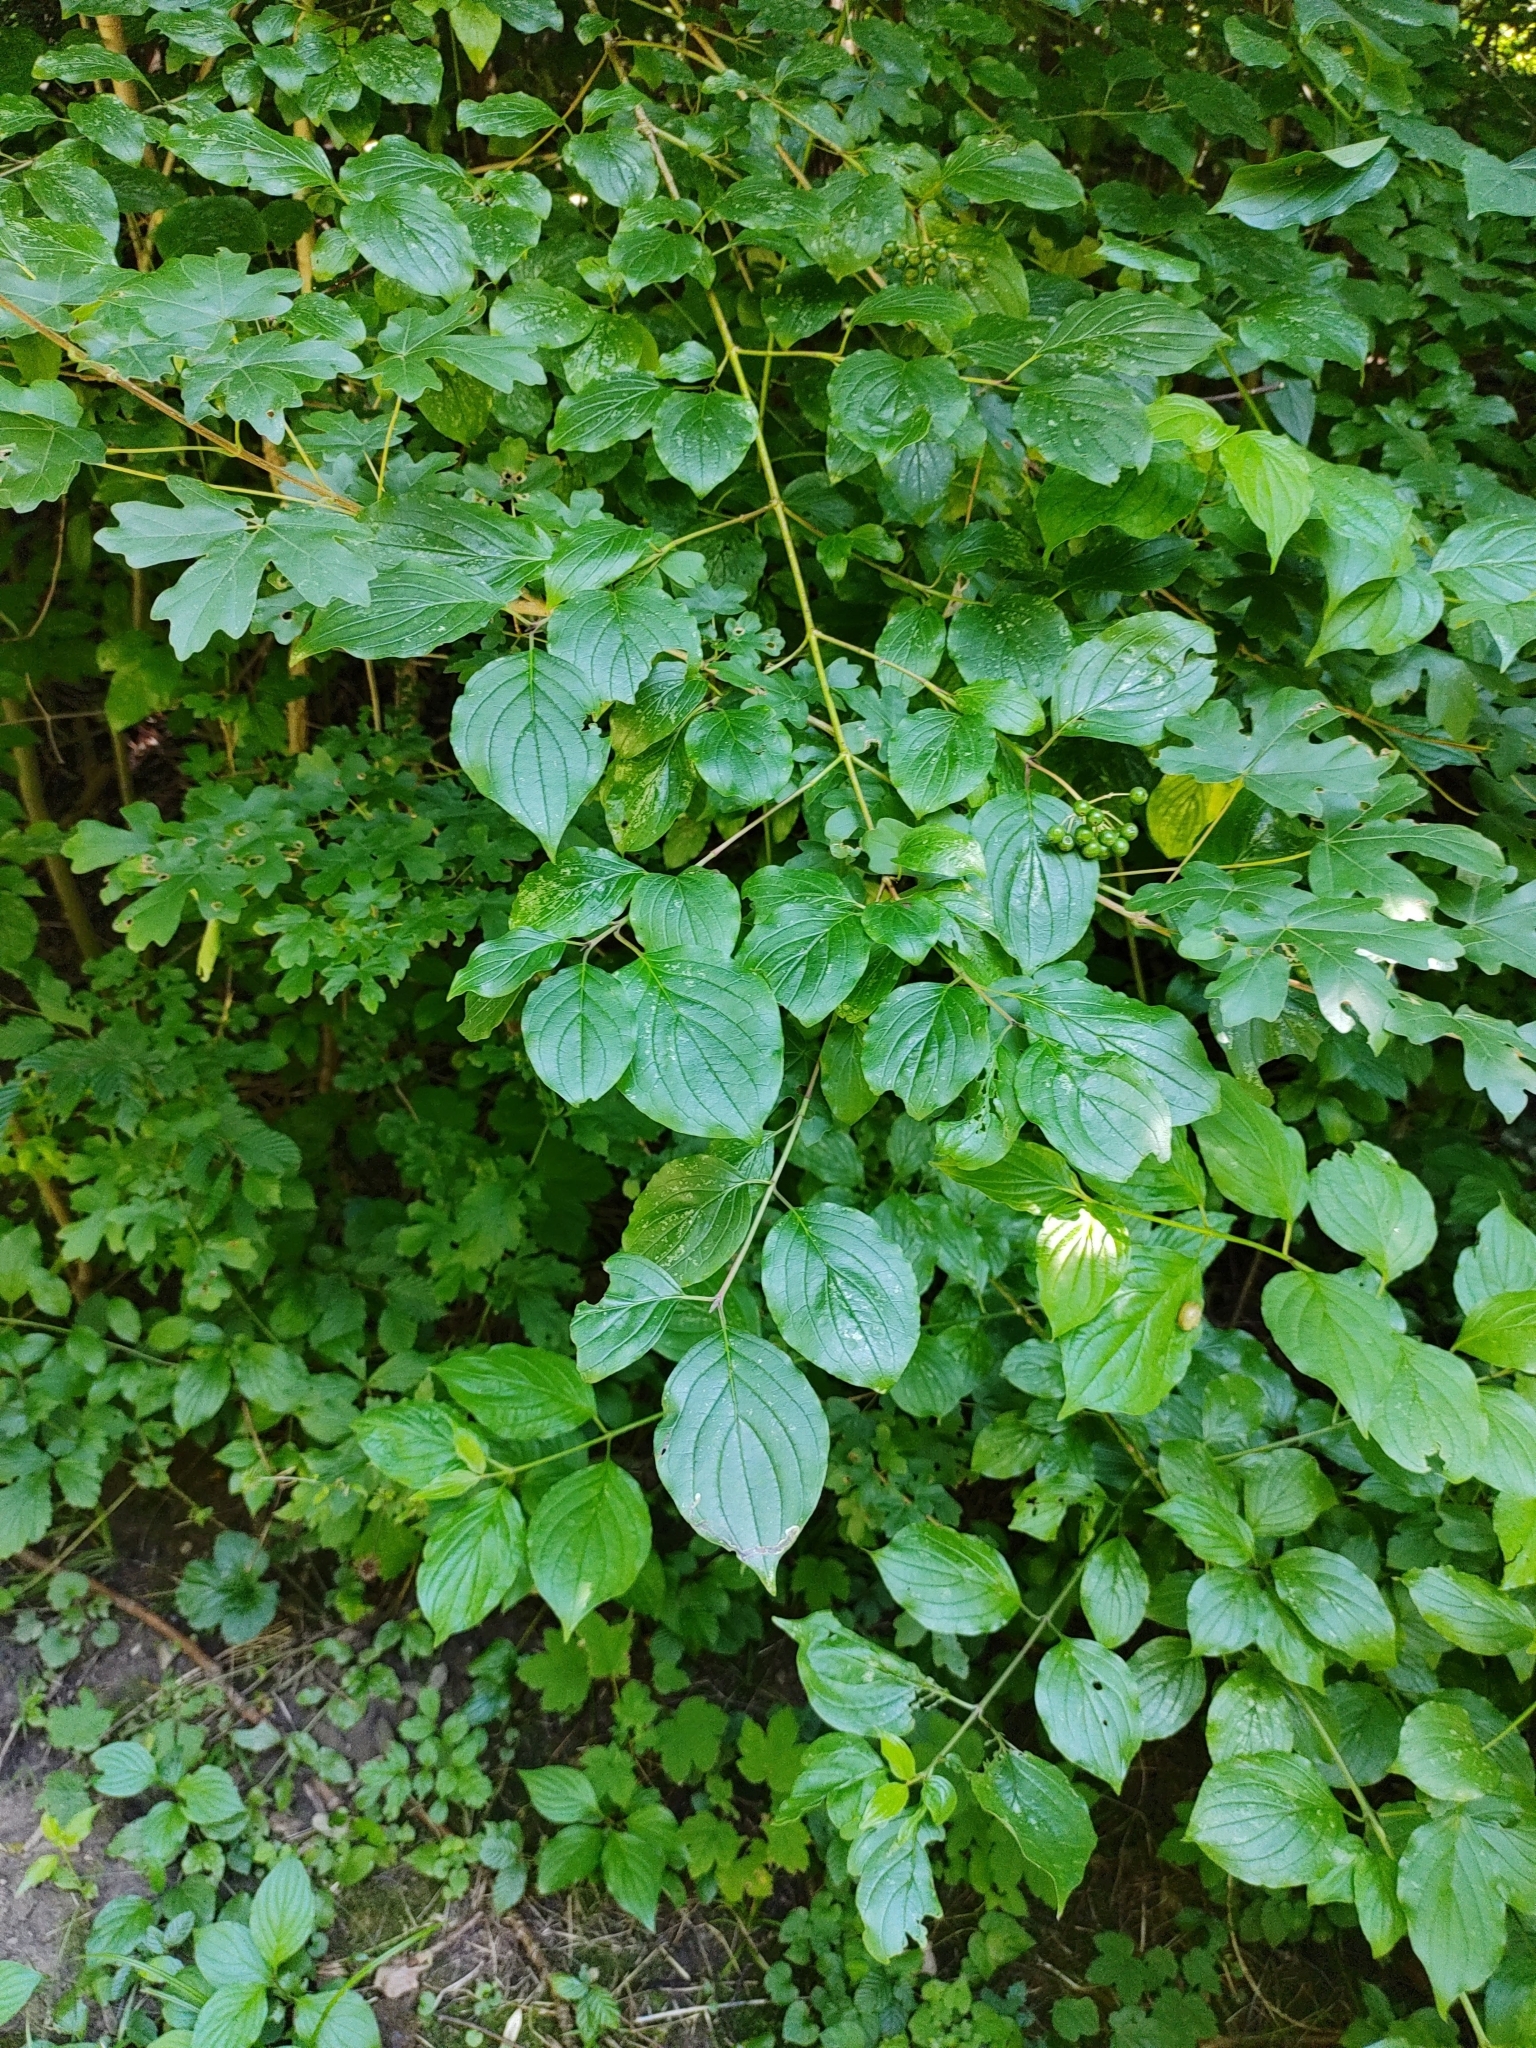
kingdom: Plantae
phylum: Tracheophyta
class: Magnoliopsida
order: Cornales
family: Cornaceae
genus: Cornus
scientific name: Cornus sanguinea
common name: Dogwood
